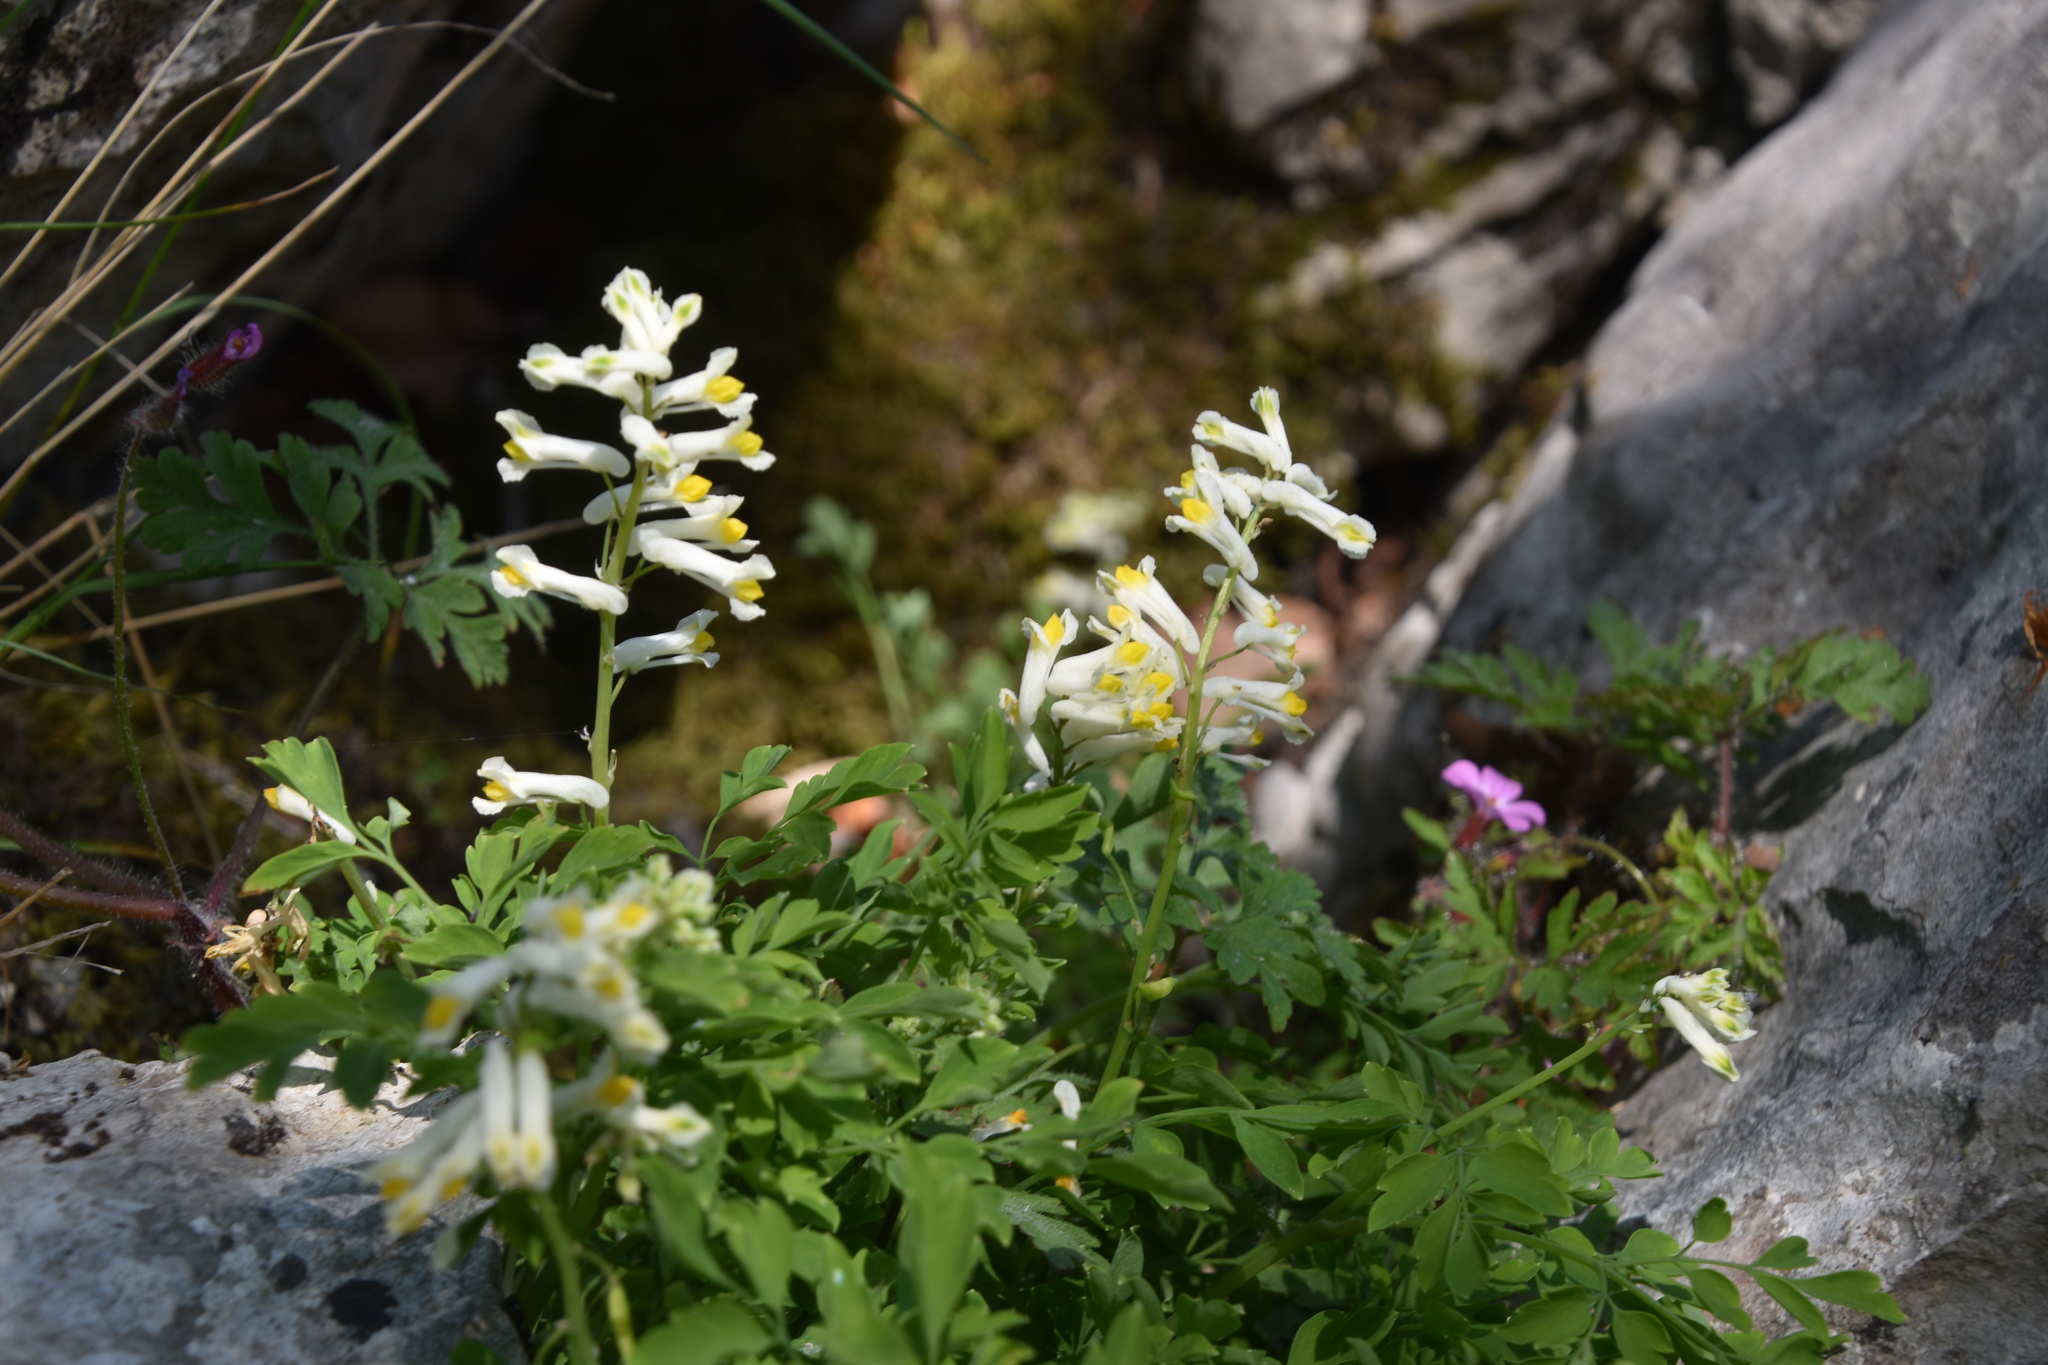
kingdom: Plantae
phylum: Tracheophyta
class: Magnoliopsida
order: Ranunculales
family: Papaveraceae
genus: Pseudofumaria
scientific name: Pseudofumaria alba
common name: Pale corydalis
